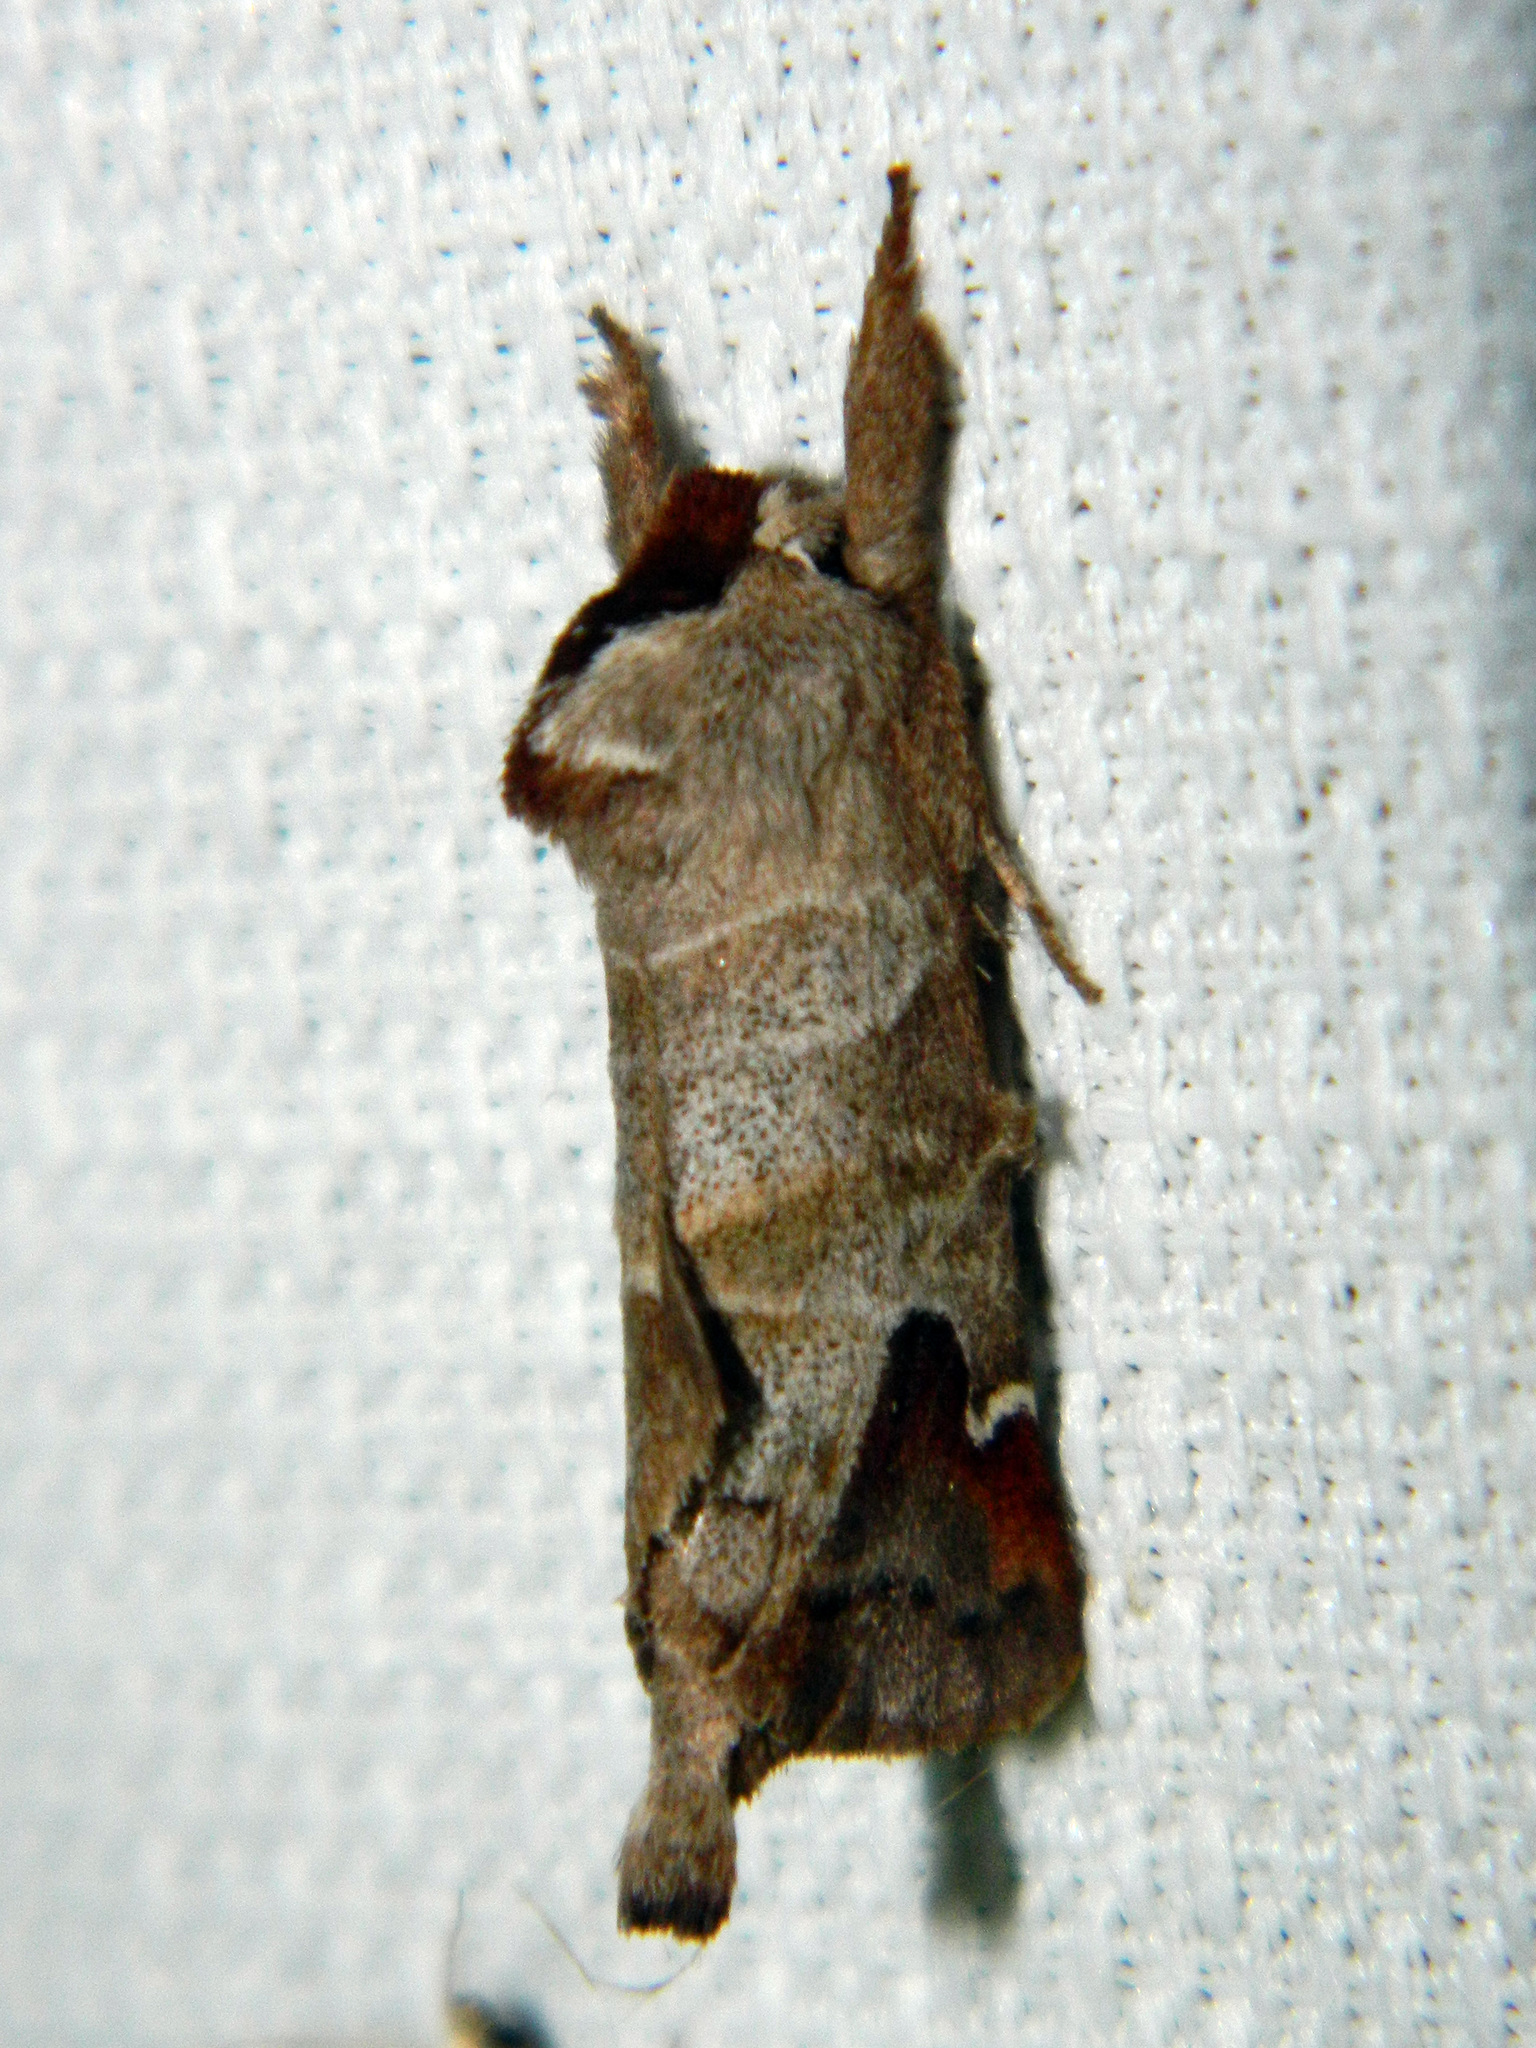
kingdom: Animalia
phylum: Arthropoda
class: Insecta
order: Lepidoptera
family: Notodontidae
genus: Clostera
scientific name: Clostera albosigma
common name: Sigmoid prominent
